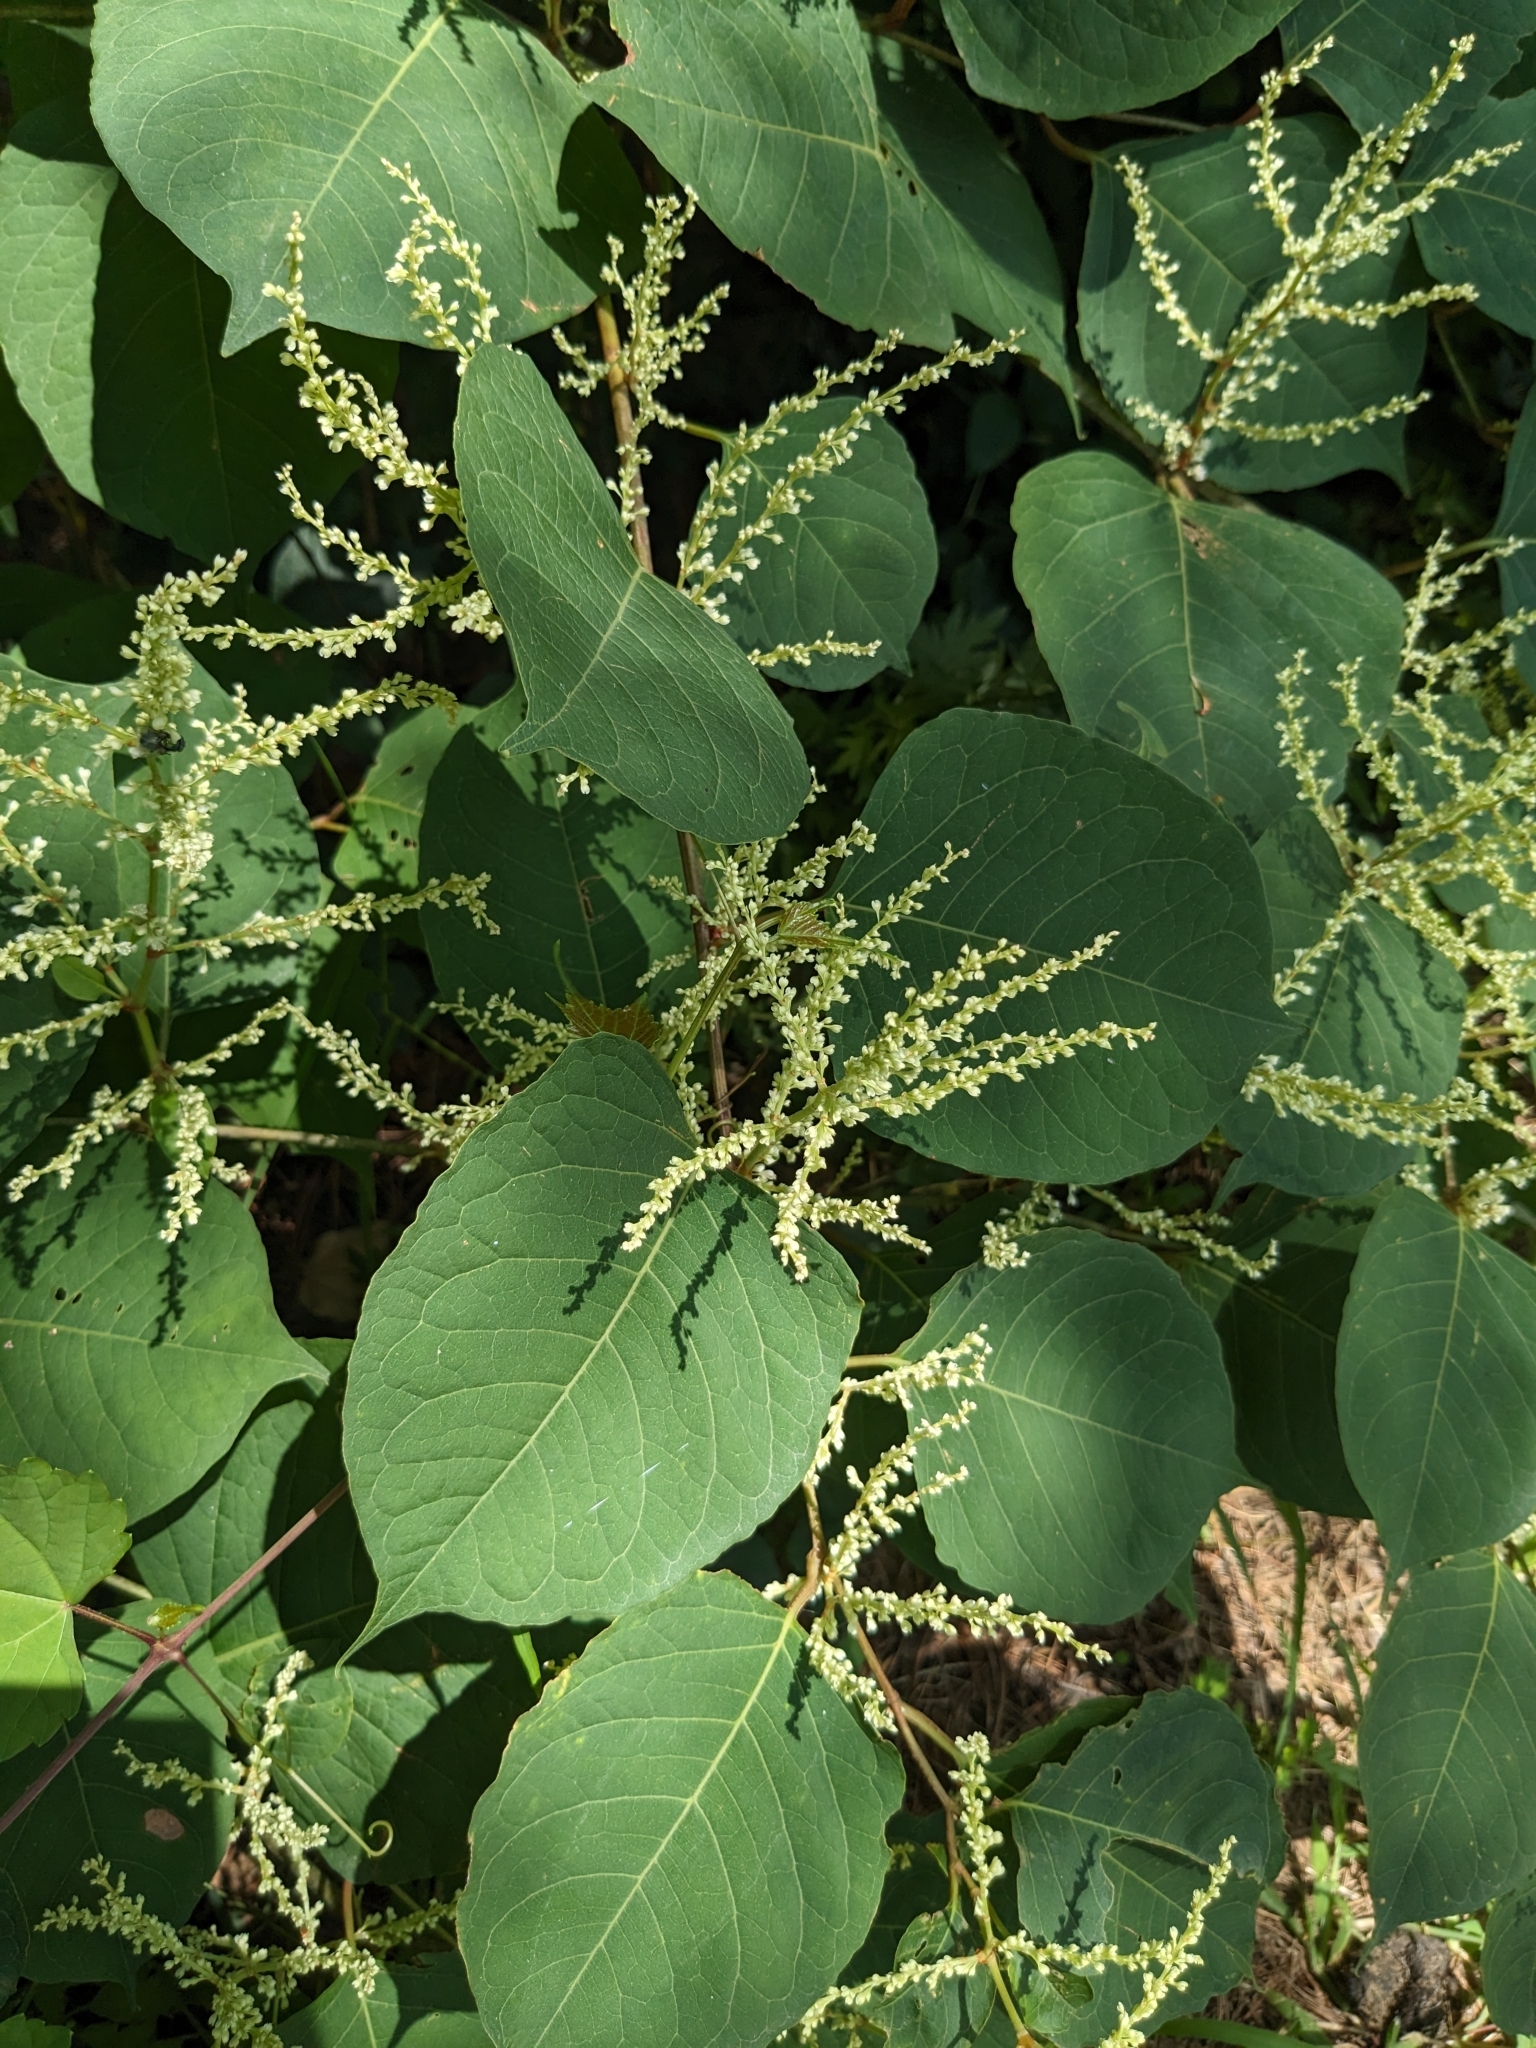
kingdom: Plantae
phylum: Tracheophyta
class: Magnoliopsida
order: Caryophyllales
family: Polygonaceae
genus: Reynoutria
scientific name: Reynoutria japonica
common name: Japanese knotweed
